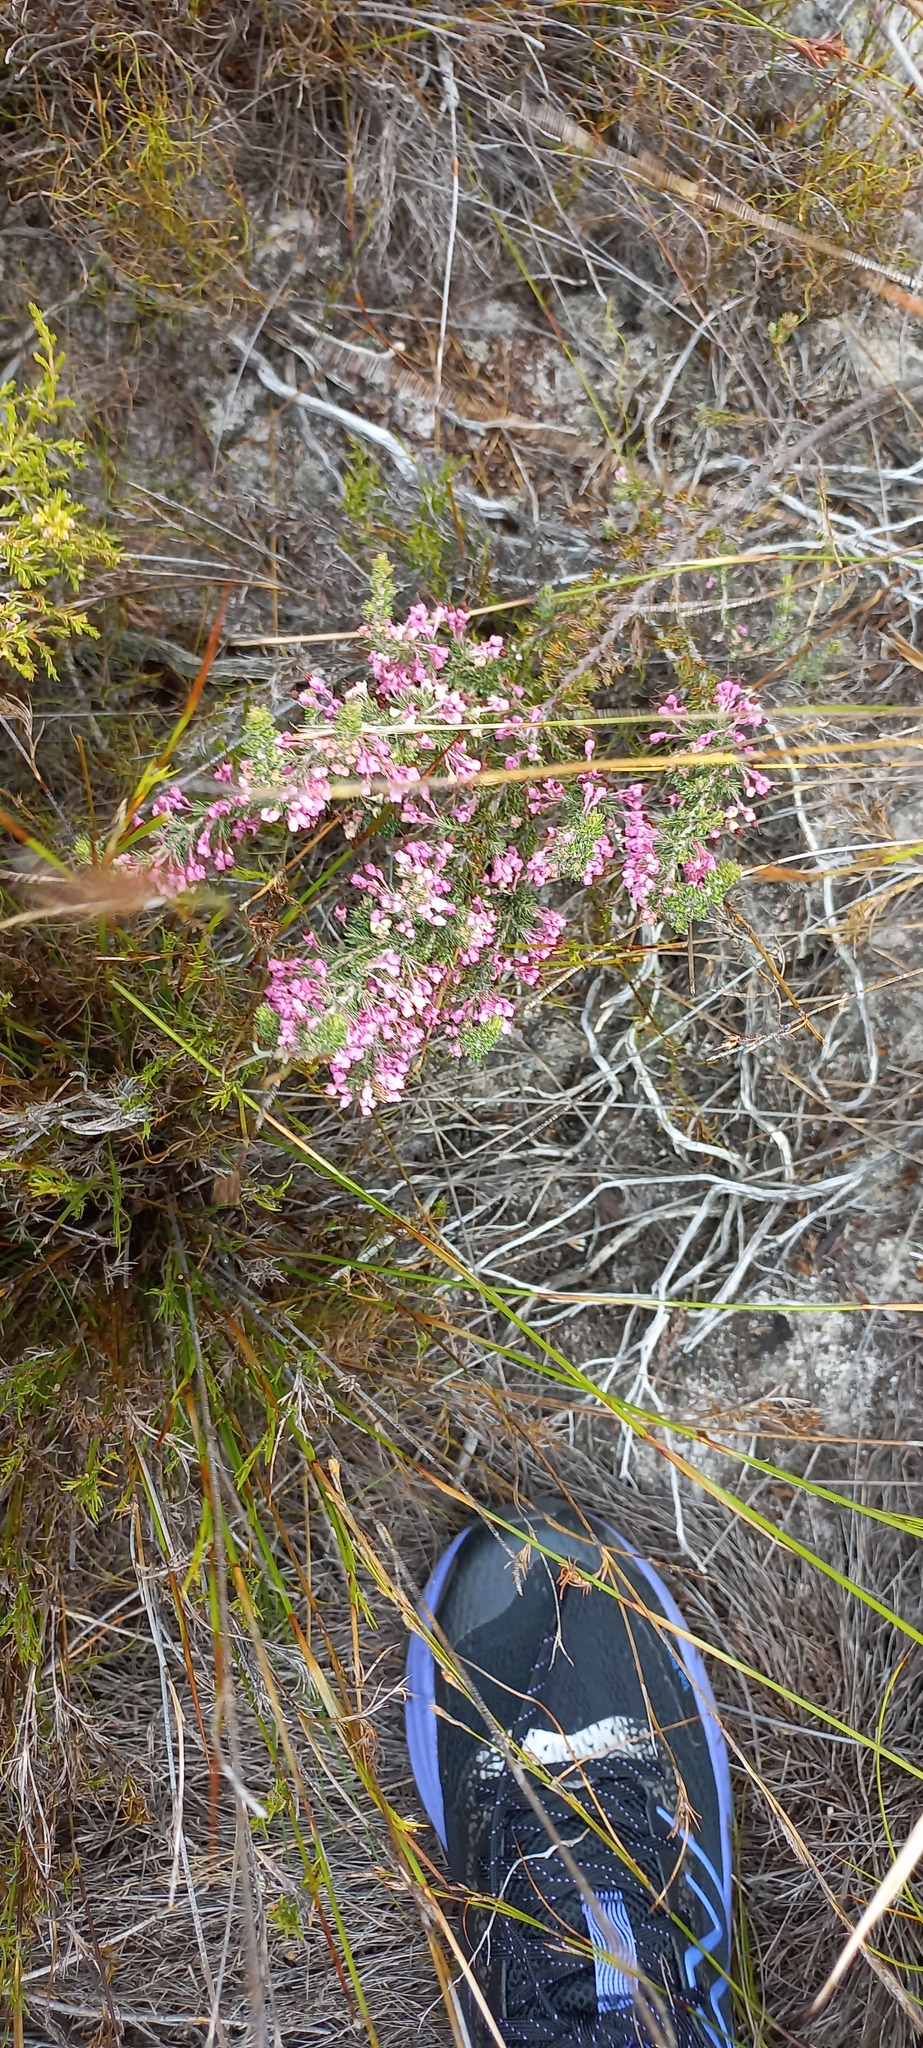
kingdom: Plantae
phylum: Tracheophyta
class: Magnoliopsida
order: Ericales
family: Ericaceae
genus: Erica
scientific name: Erica placentiflora
